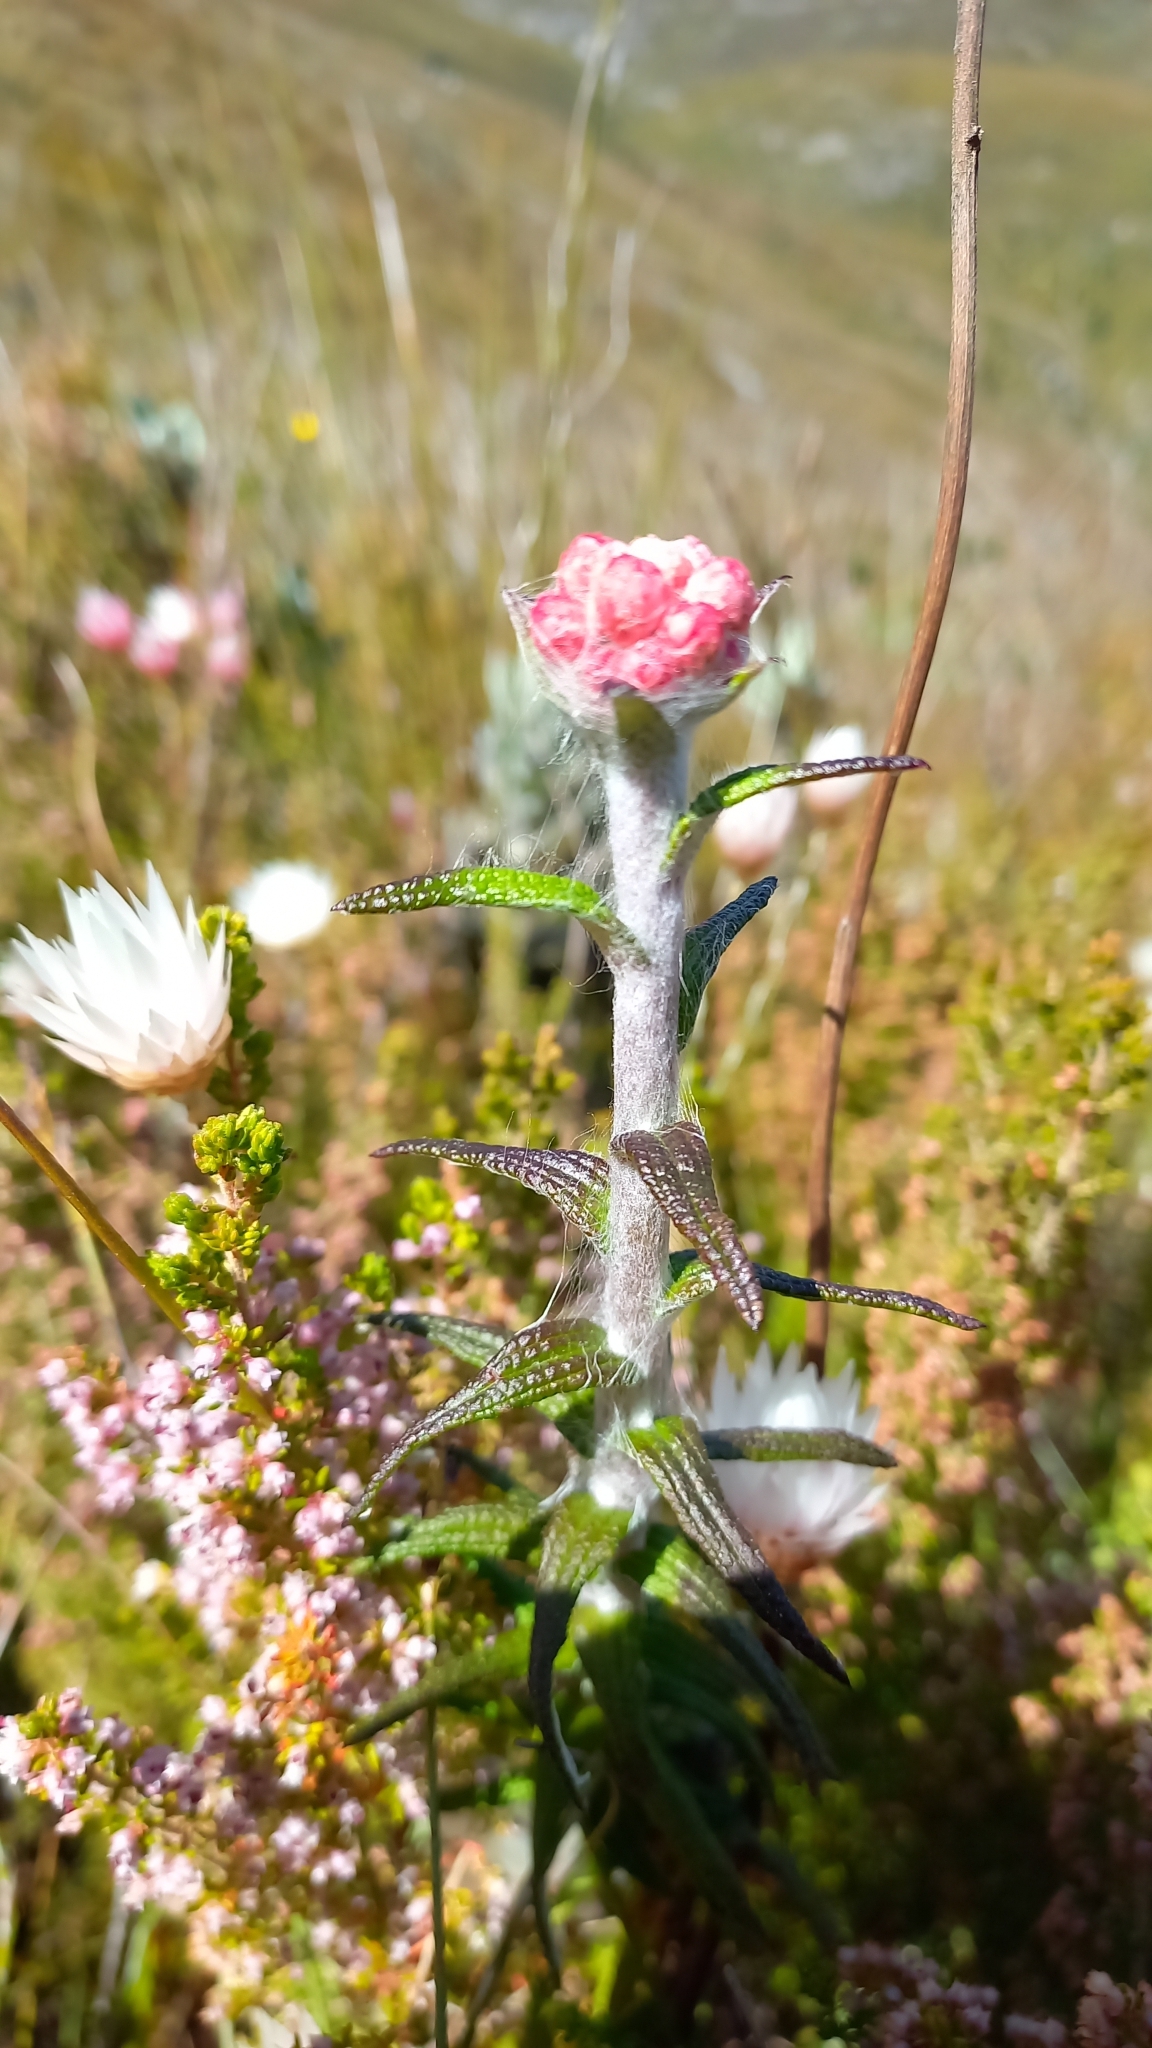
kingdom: Plantae
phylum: Tracheophyta
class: Magnoliopsida
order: Asterales
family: Asteraceae
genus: Helichrysum
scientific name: Helichrysum felinum
